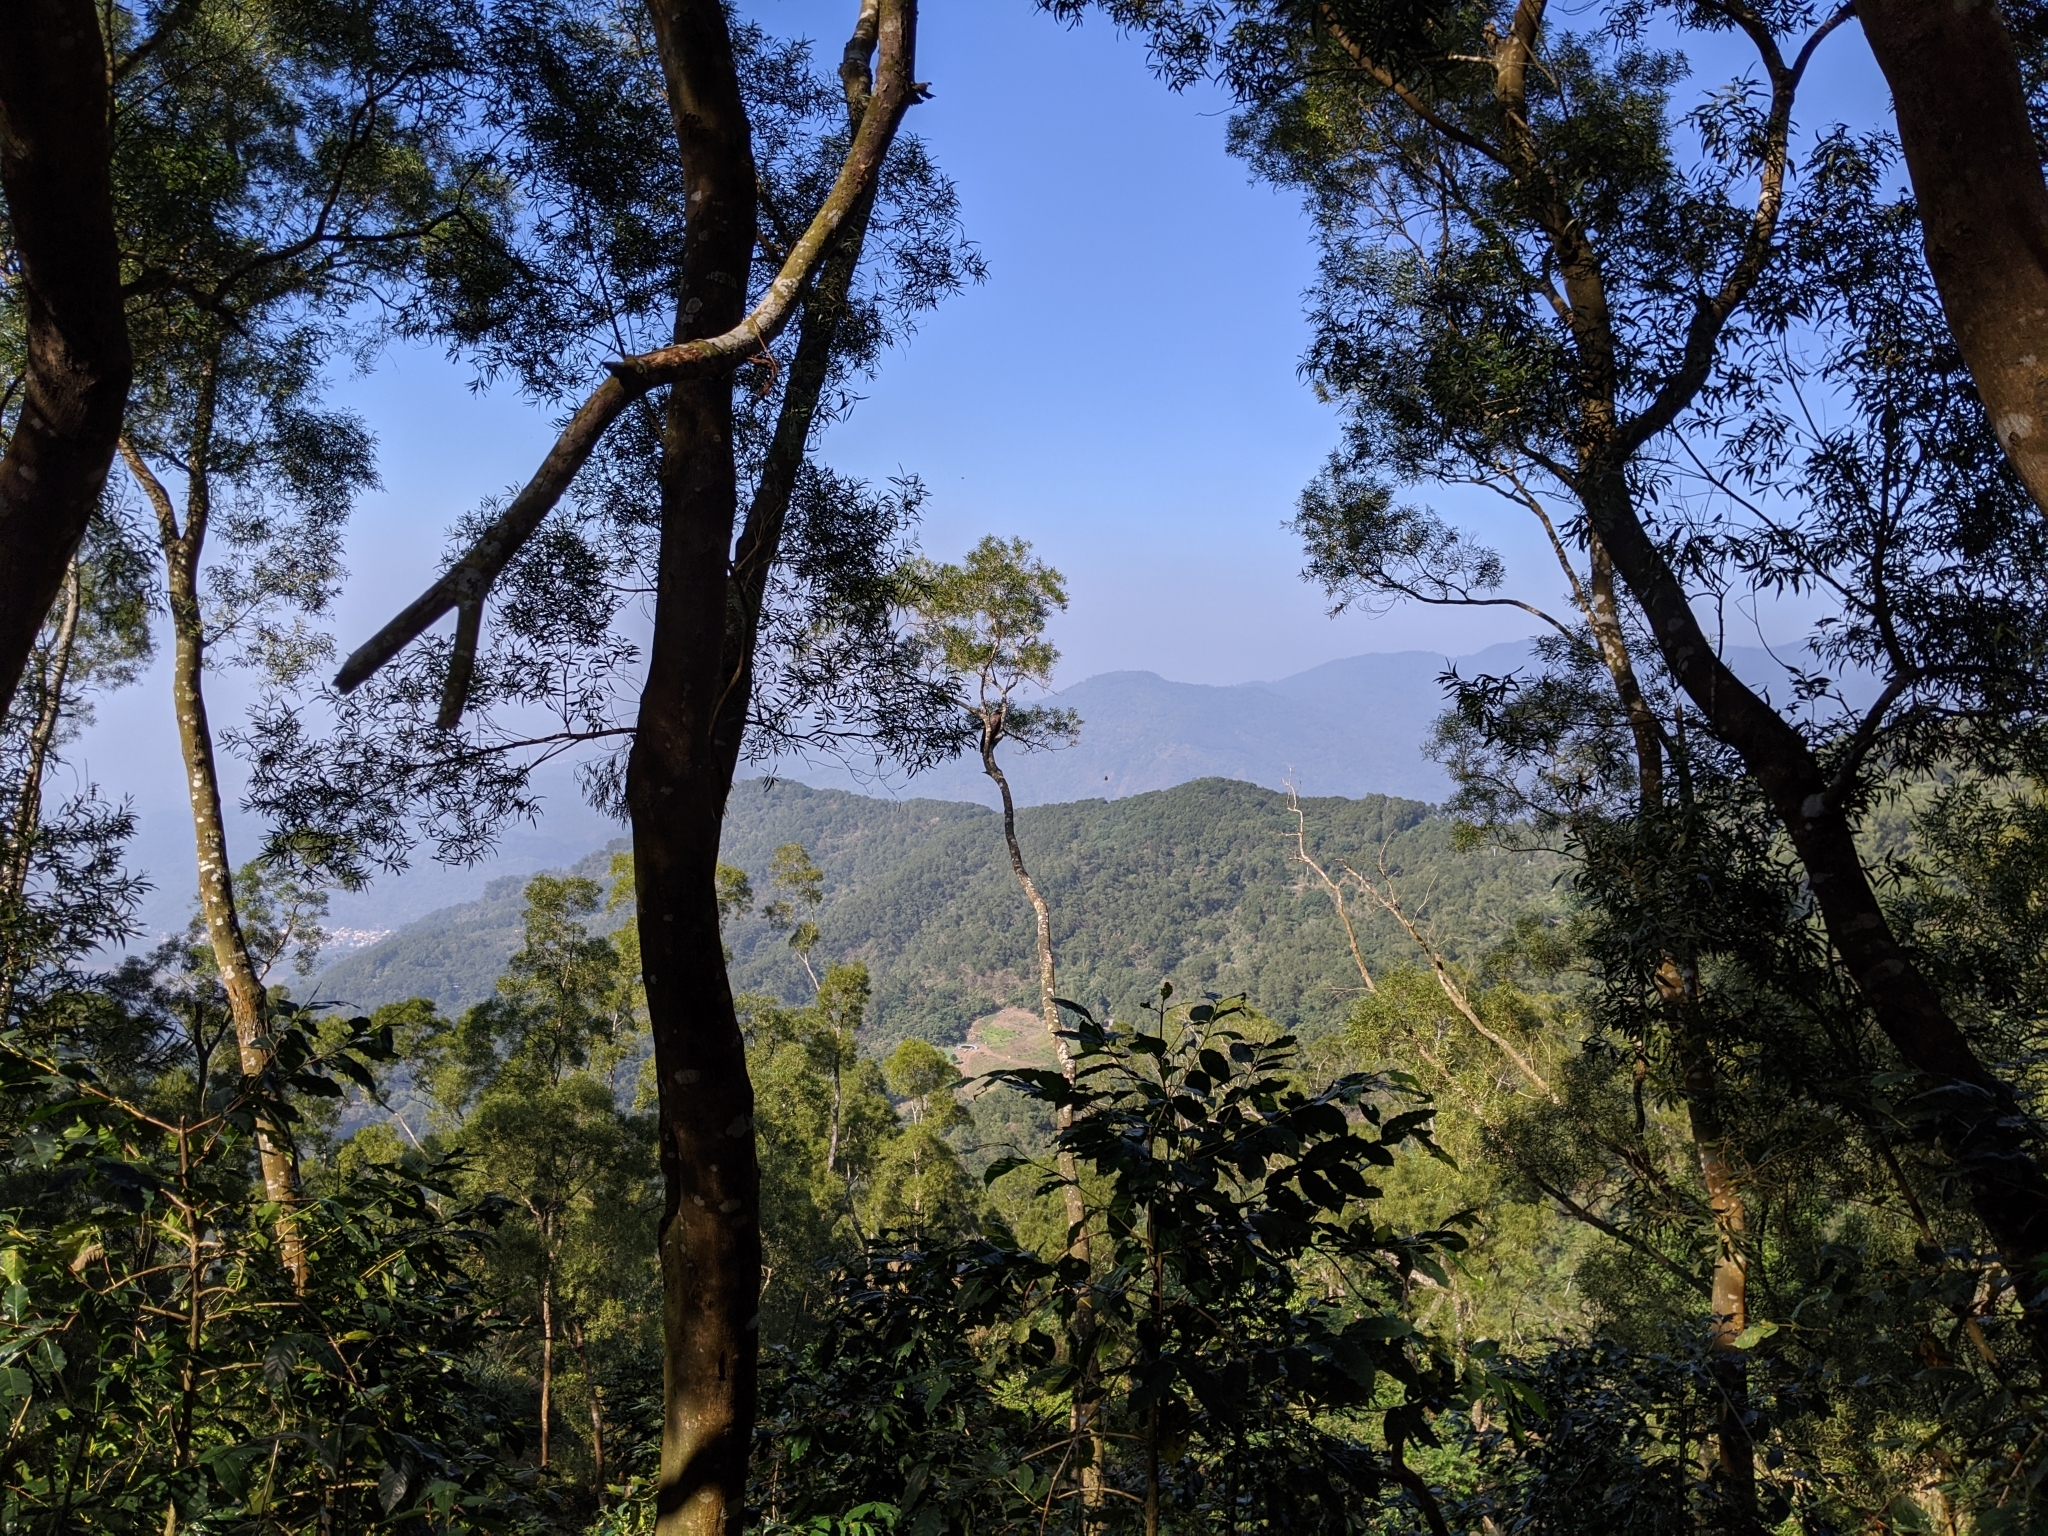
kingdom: Animalia
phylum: Chordata
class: Aves
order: Accipitriformes
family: Accipitridae
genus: Spilornis
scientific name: Spilornis cheela
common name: Crested serpent eagle
